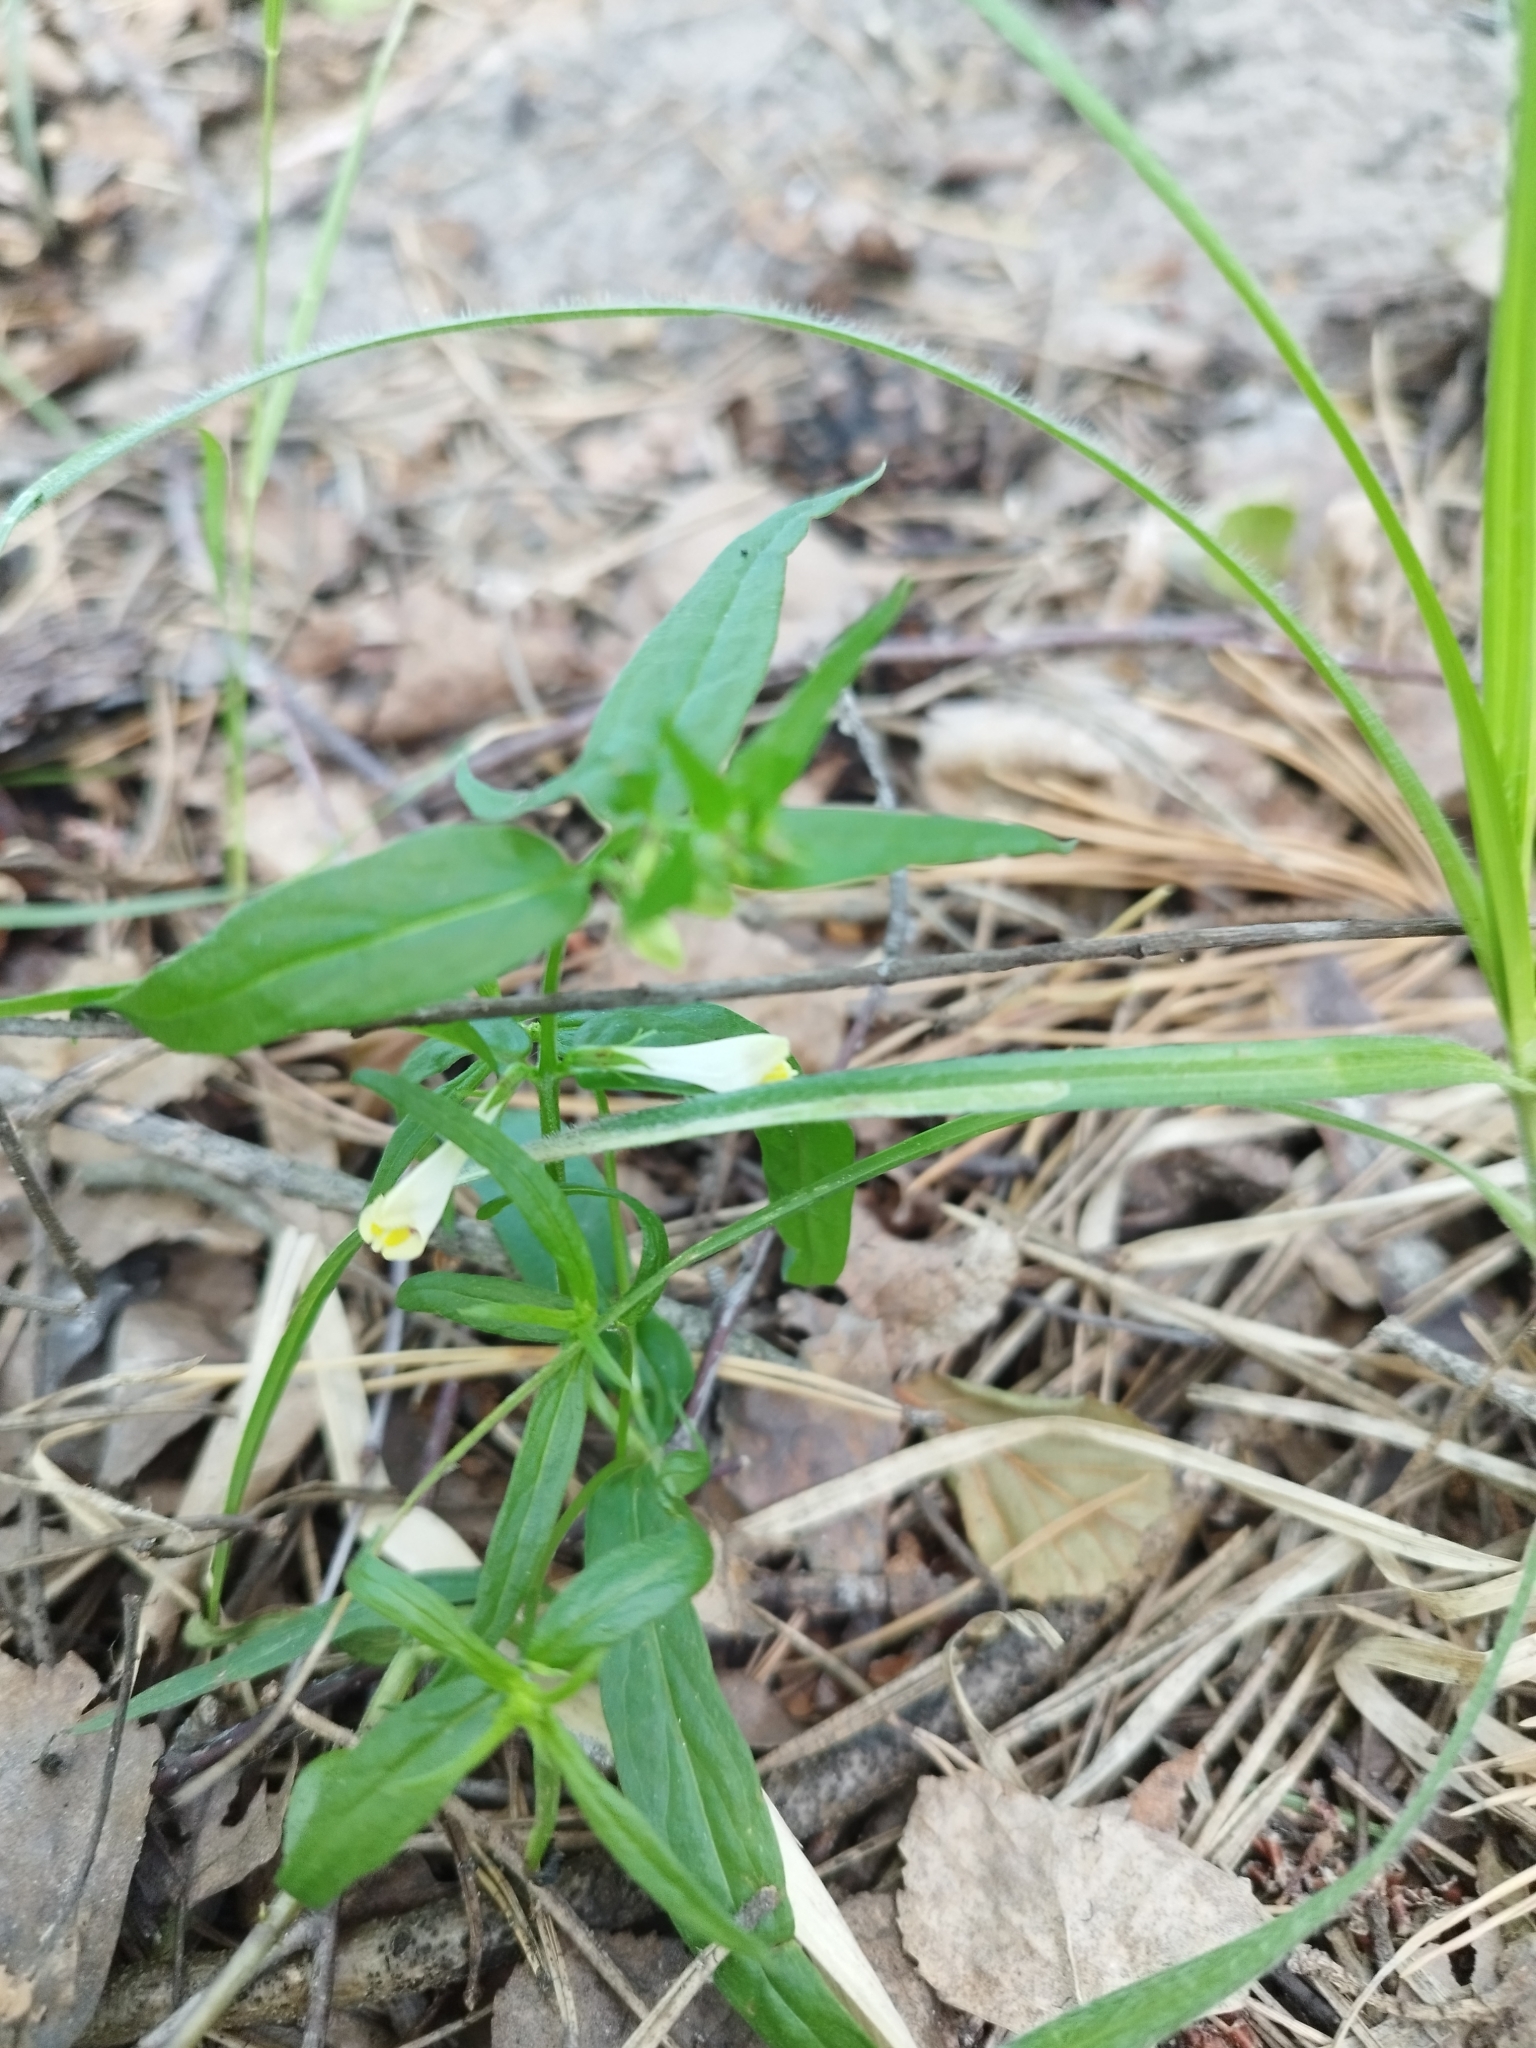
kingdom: Plantae
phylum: Tracheophyta
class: Magnoliopsida
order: Lamiales
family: Orobanchaceae
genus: Melampyrum
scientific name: Melampyrum pratense
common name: Common cow-wheat
